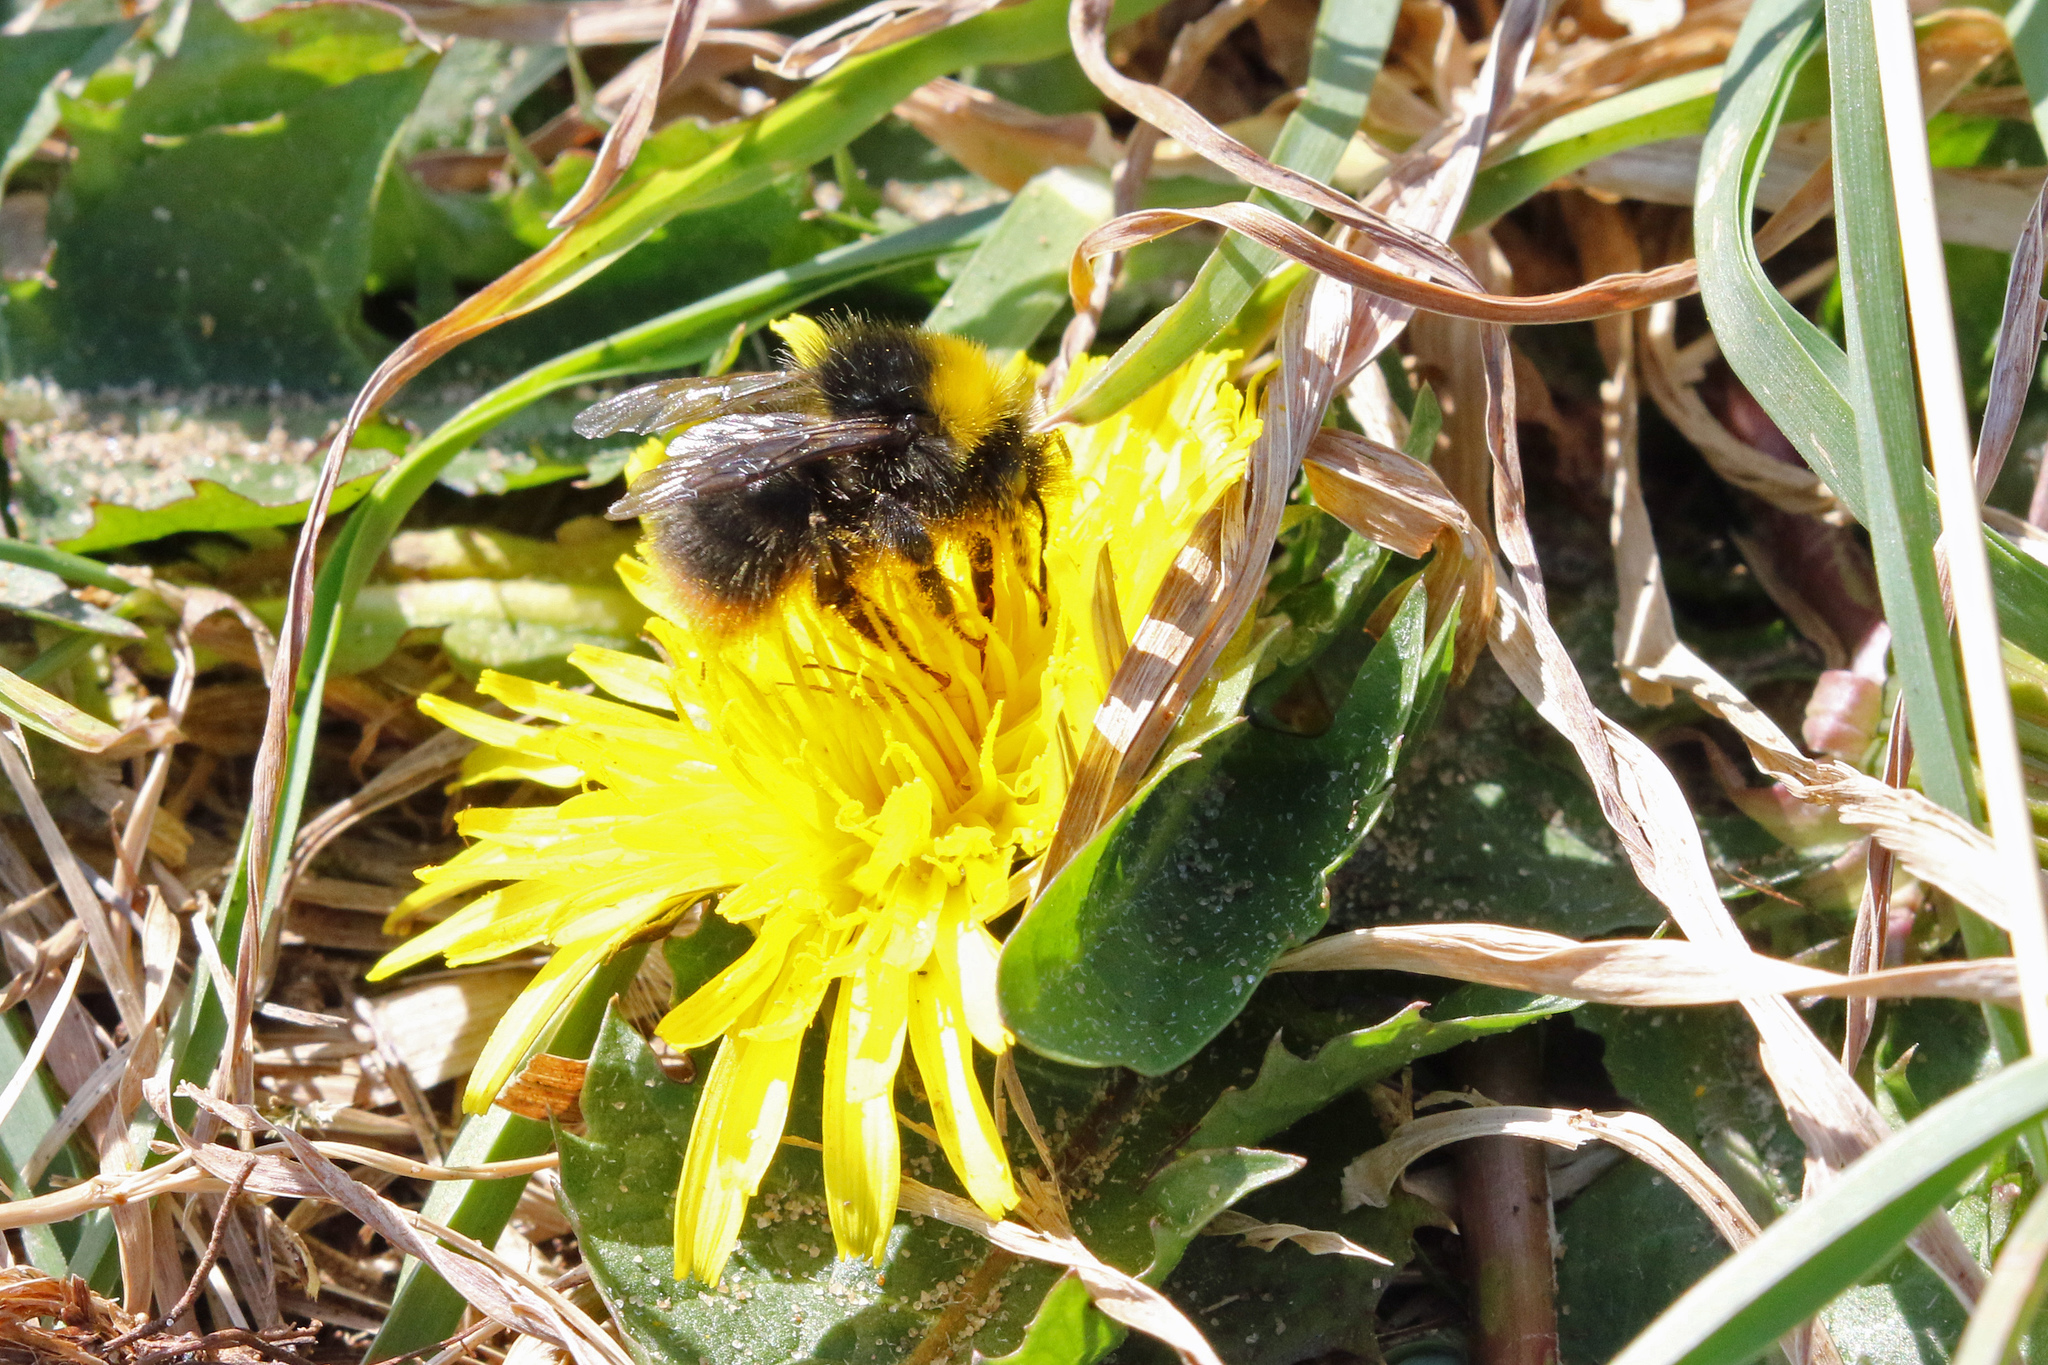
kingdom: Animalia
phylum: Arthropoda
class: Insecta
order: Hymenoptera
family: Apidae
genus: Bombus
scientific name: Bombus pratorum
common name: Early humble-bee
